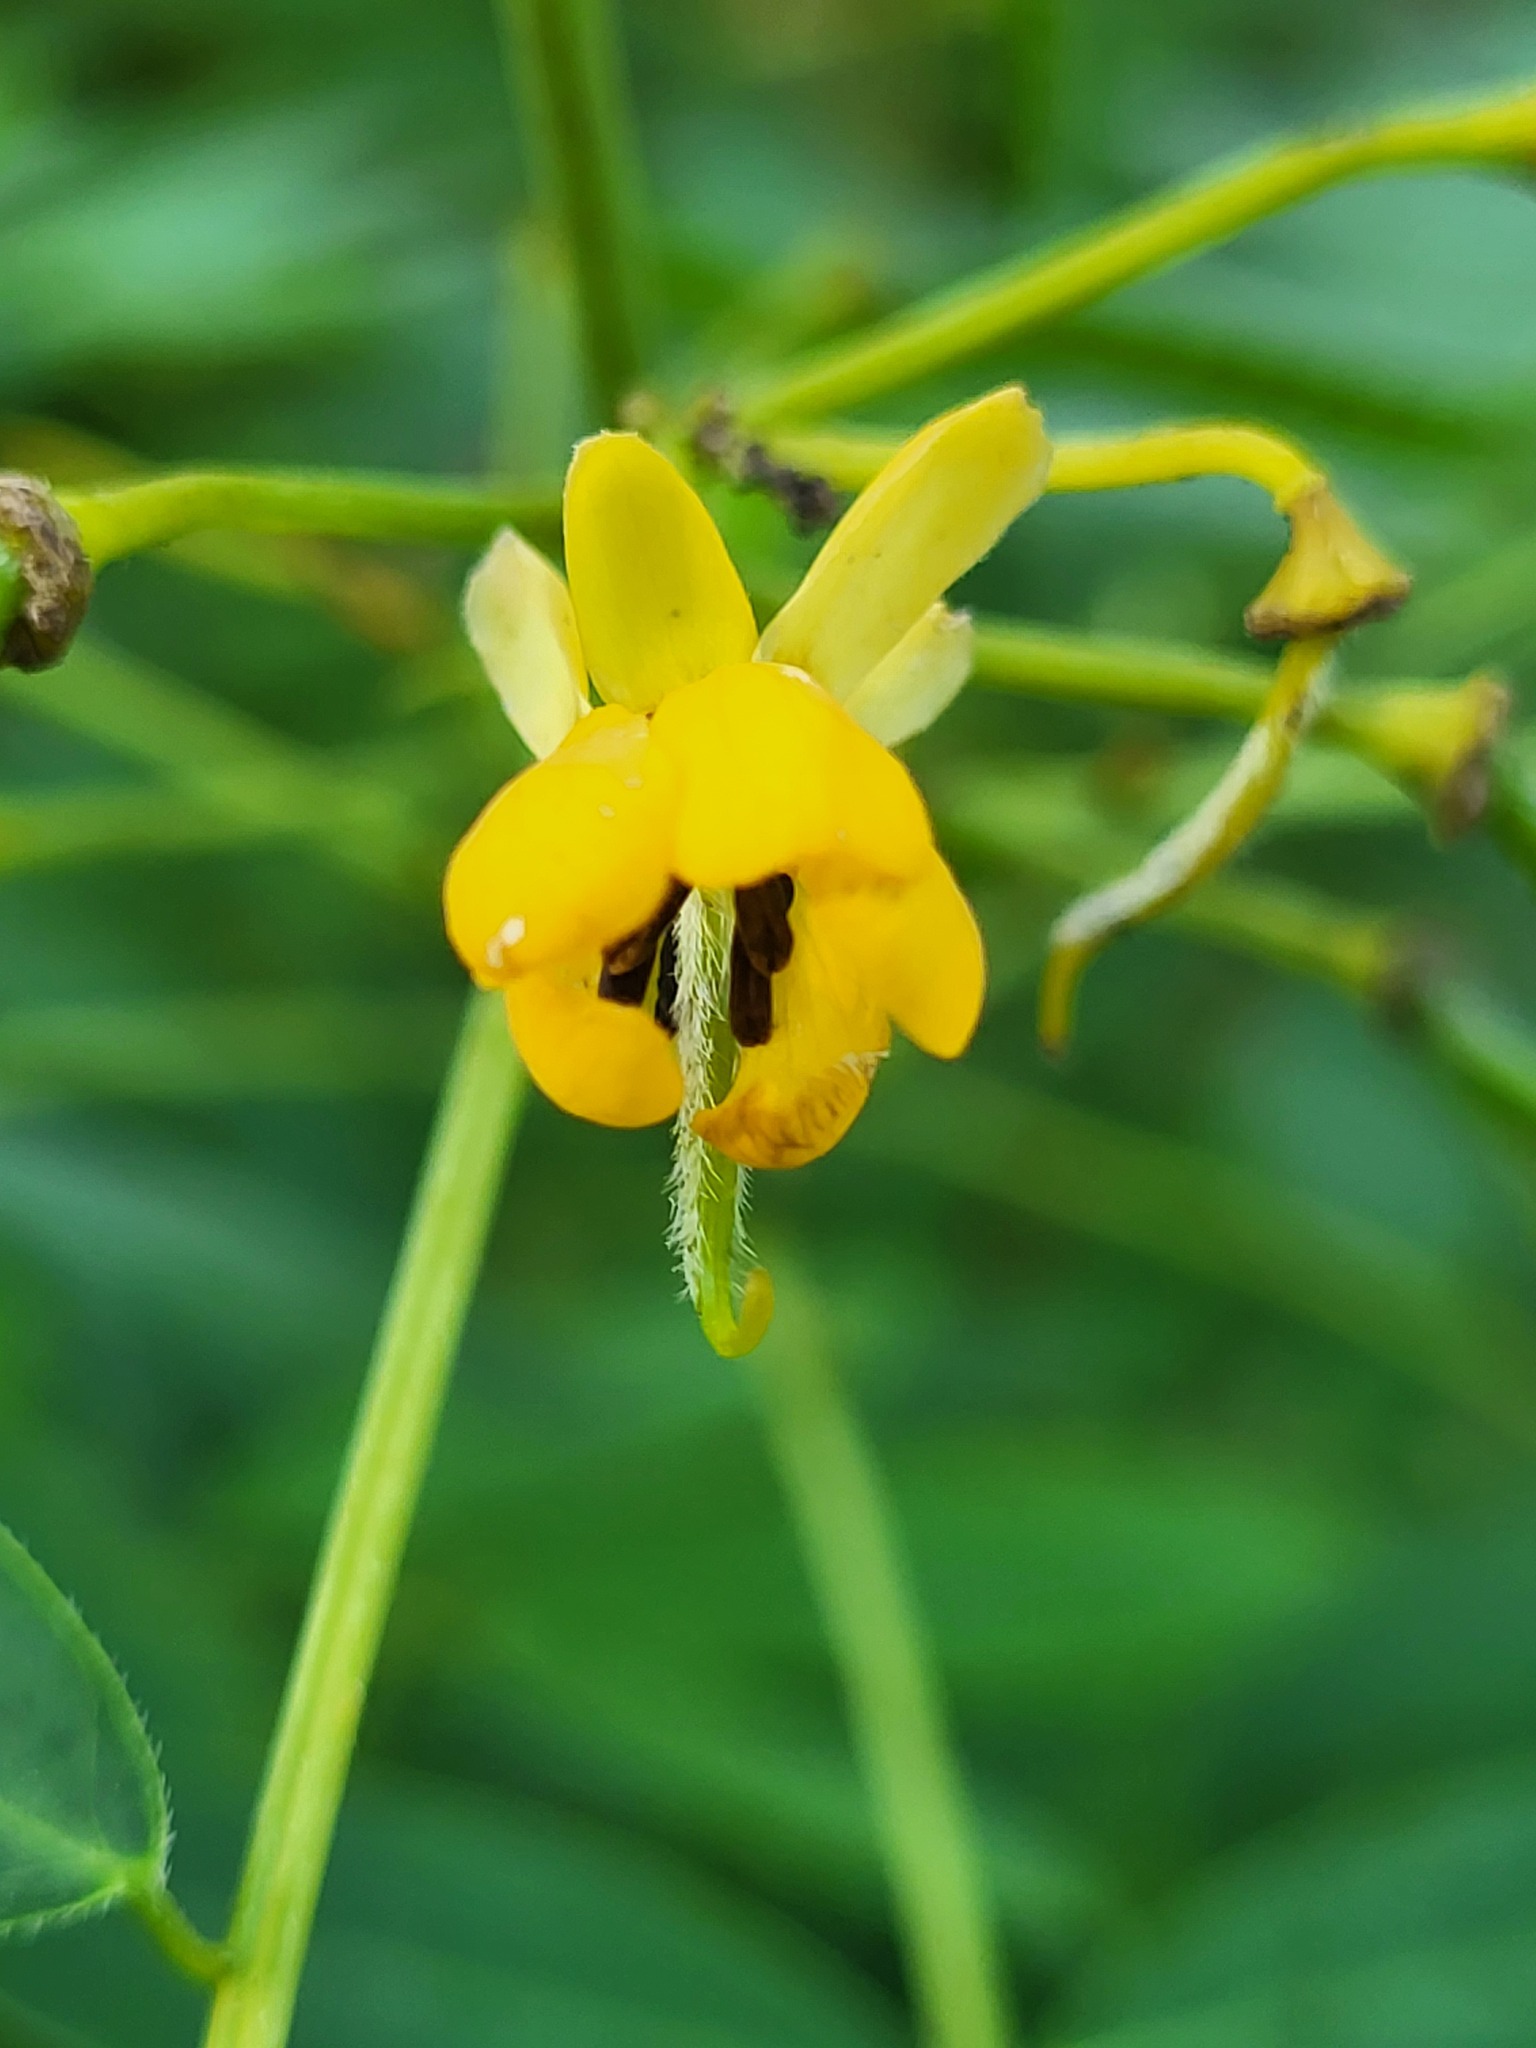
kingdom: Plantae
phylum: Tracheophyta
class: Magnoliopsida
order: Fabales
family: Fabaceae
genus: Senna
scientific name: Senna hebecarpa
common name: Wild senna
